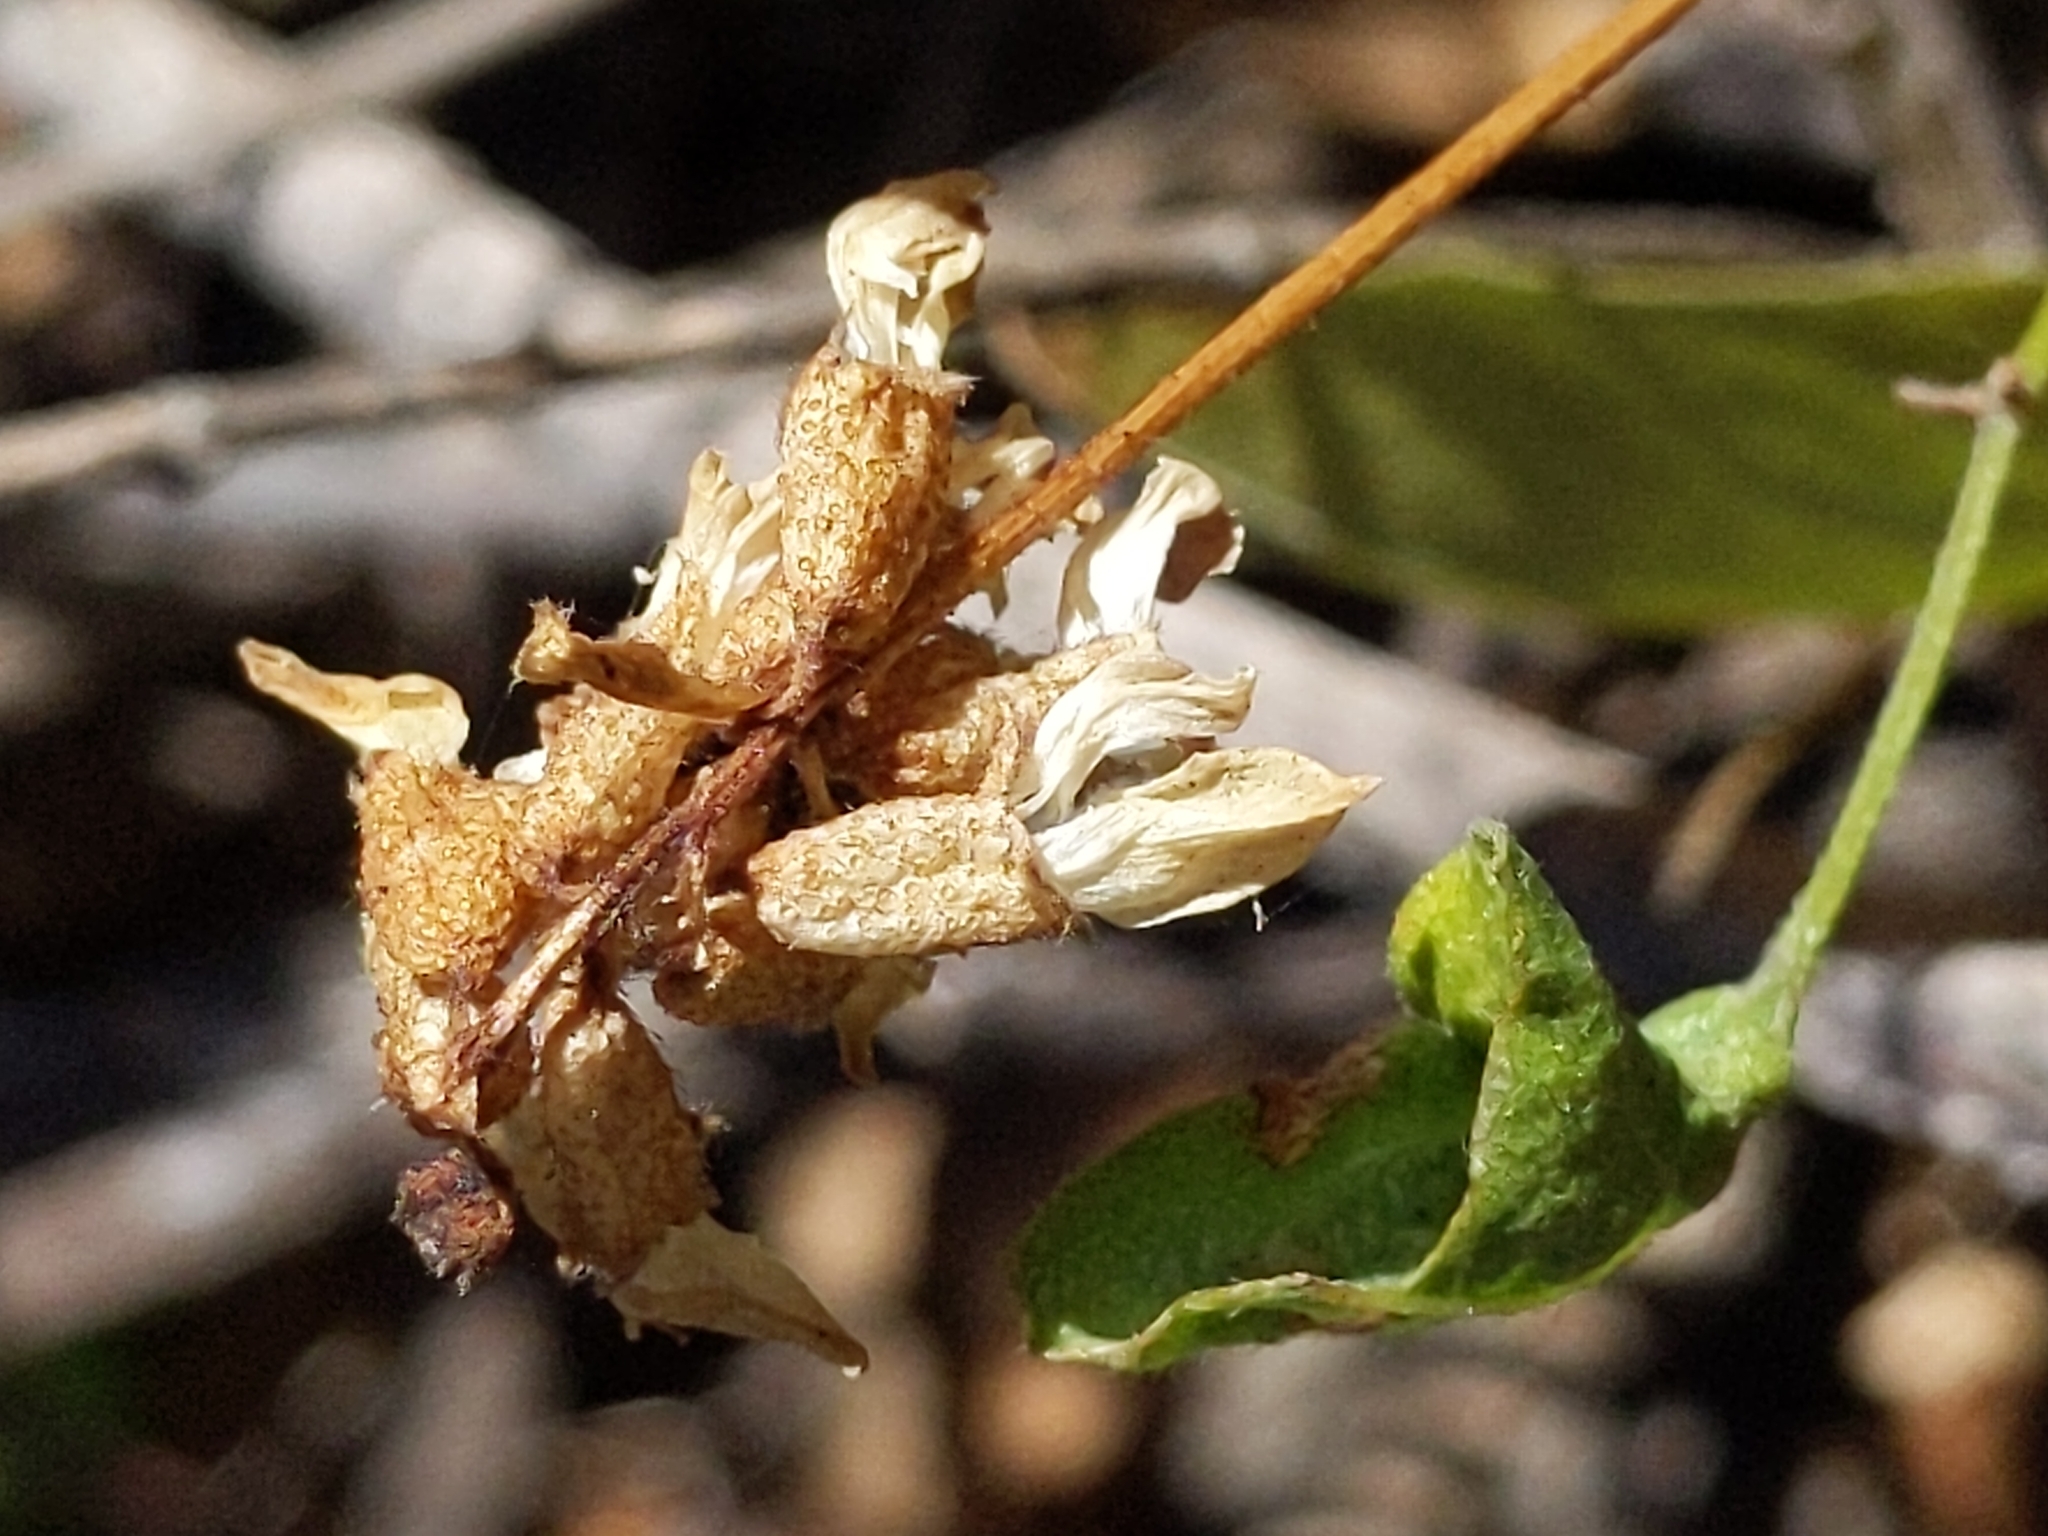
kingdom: Plantae
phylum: Tracheophyta
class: Magnoliopsida
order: Fabales
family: Fabaceae
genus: Rupertia
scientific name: Rupertia physodes
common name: California-tea
